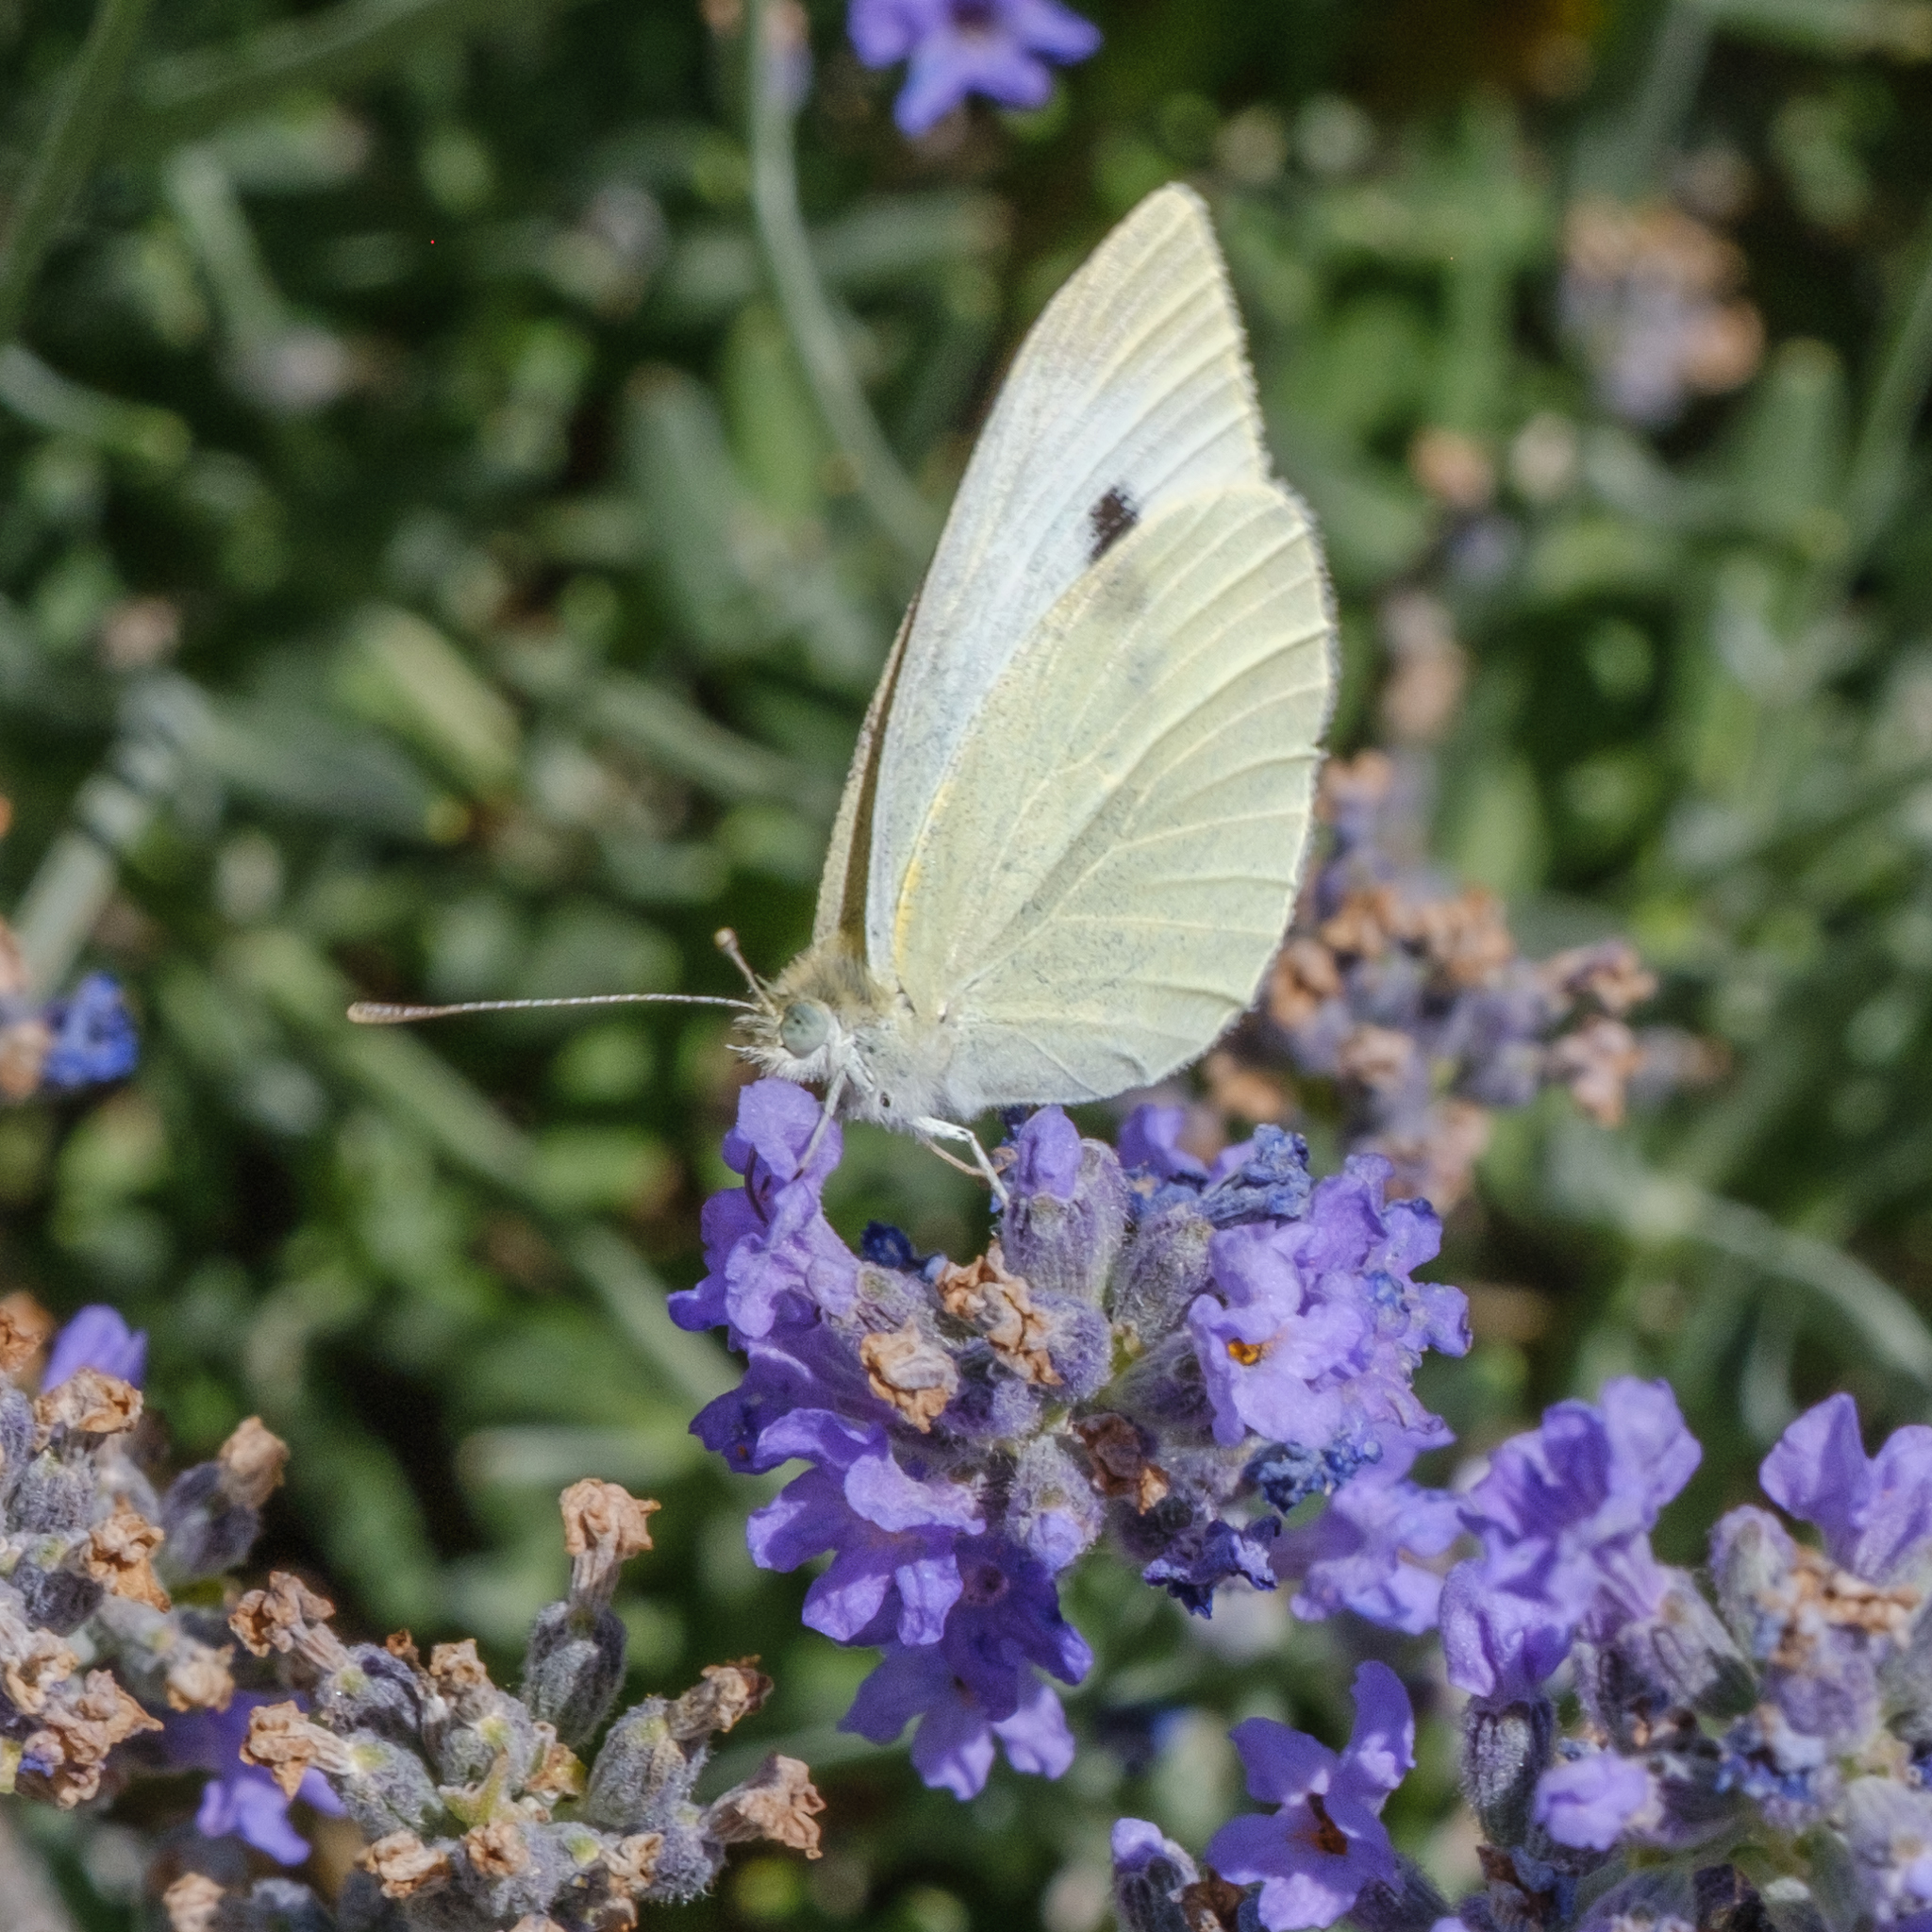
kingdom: Animalia
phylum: Arthropoda
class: Insecta
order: Lepidoptera
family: Pieridae
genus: Pieris
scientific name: Pieris rapae
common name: Small white
